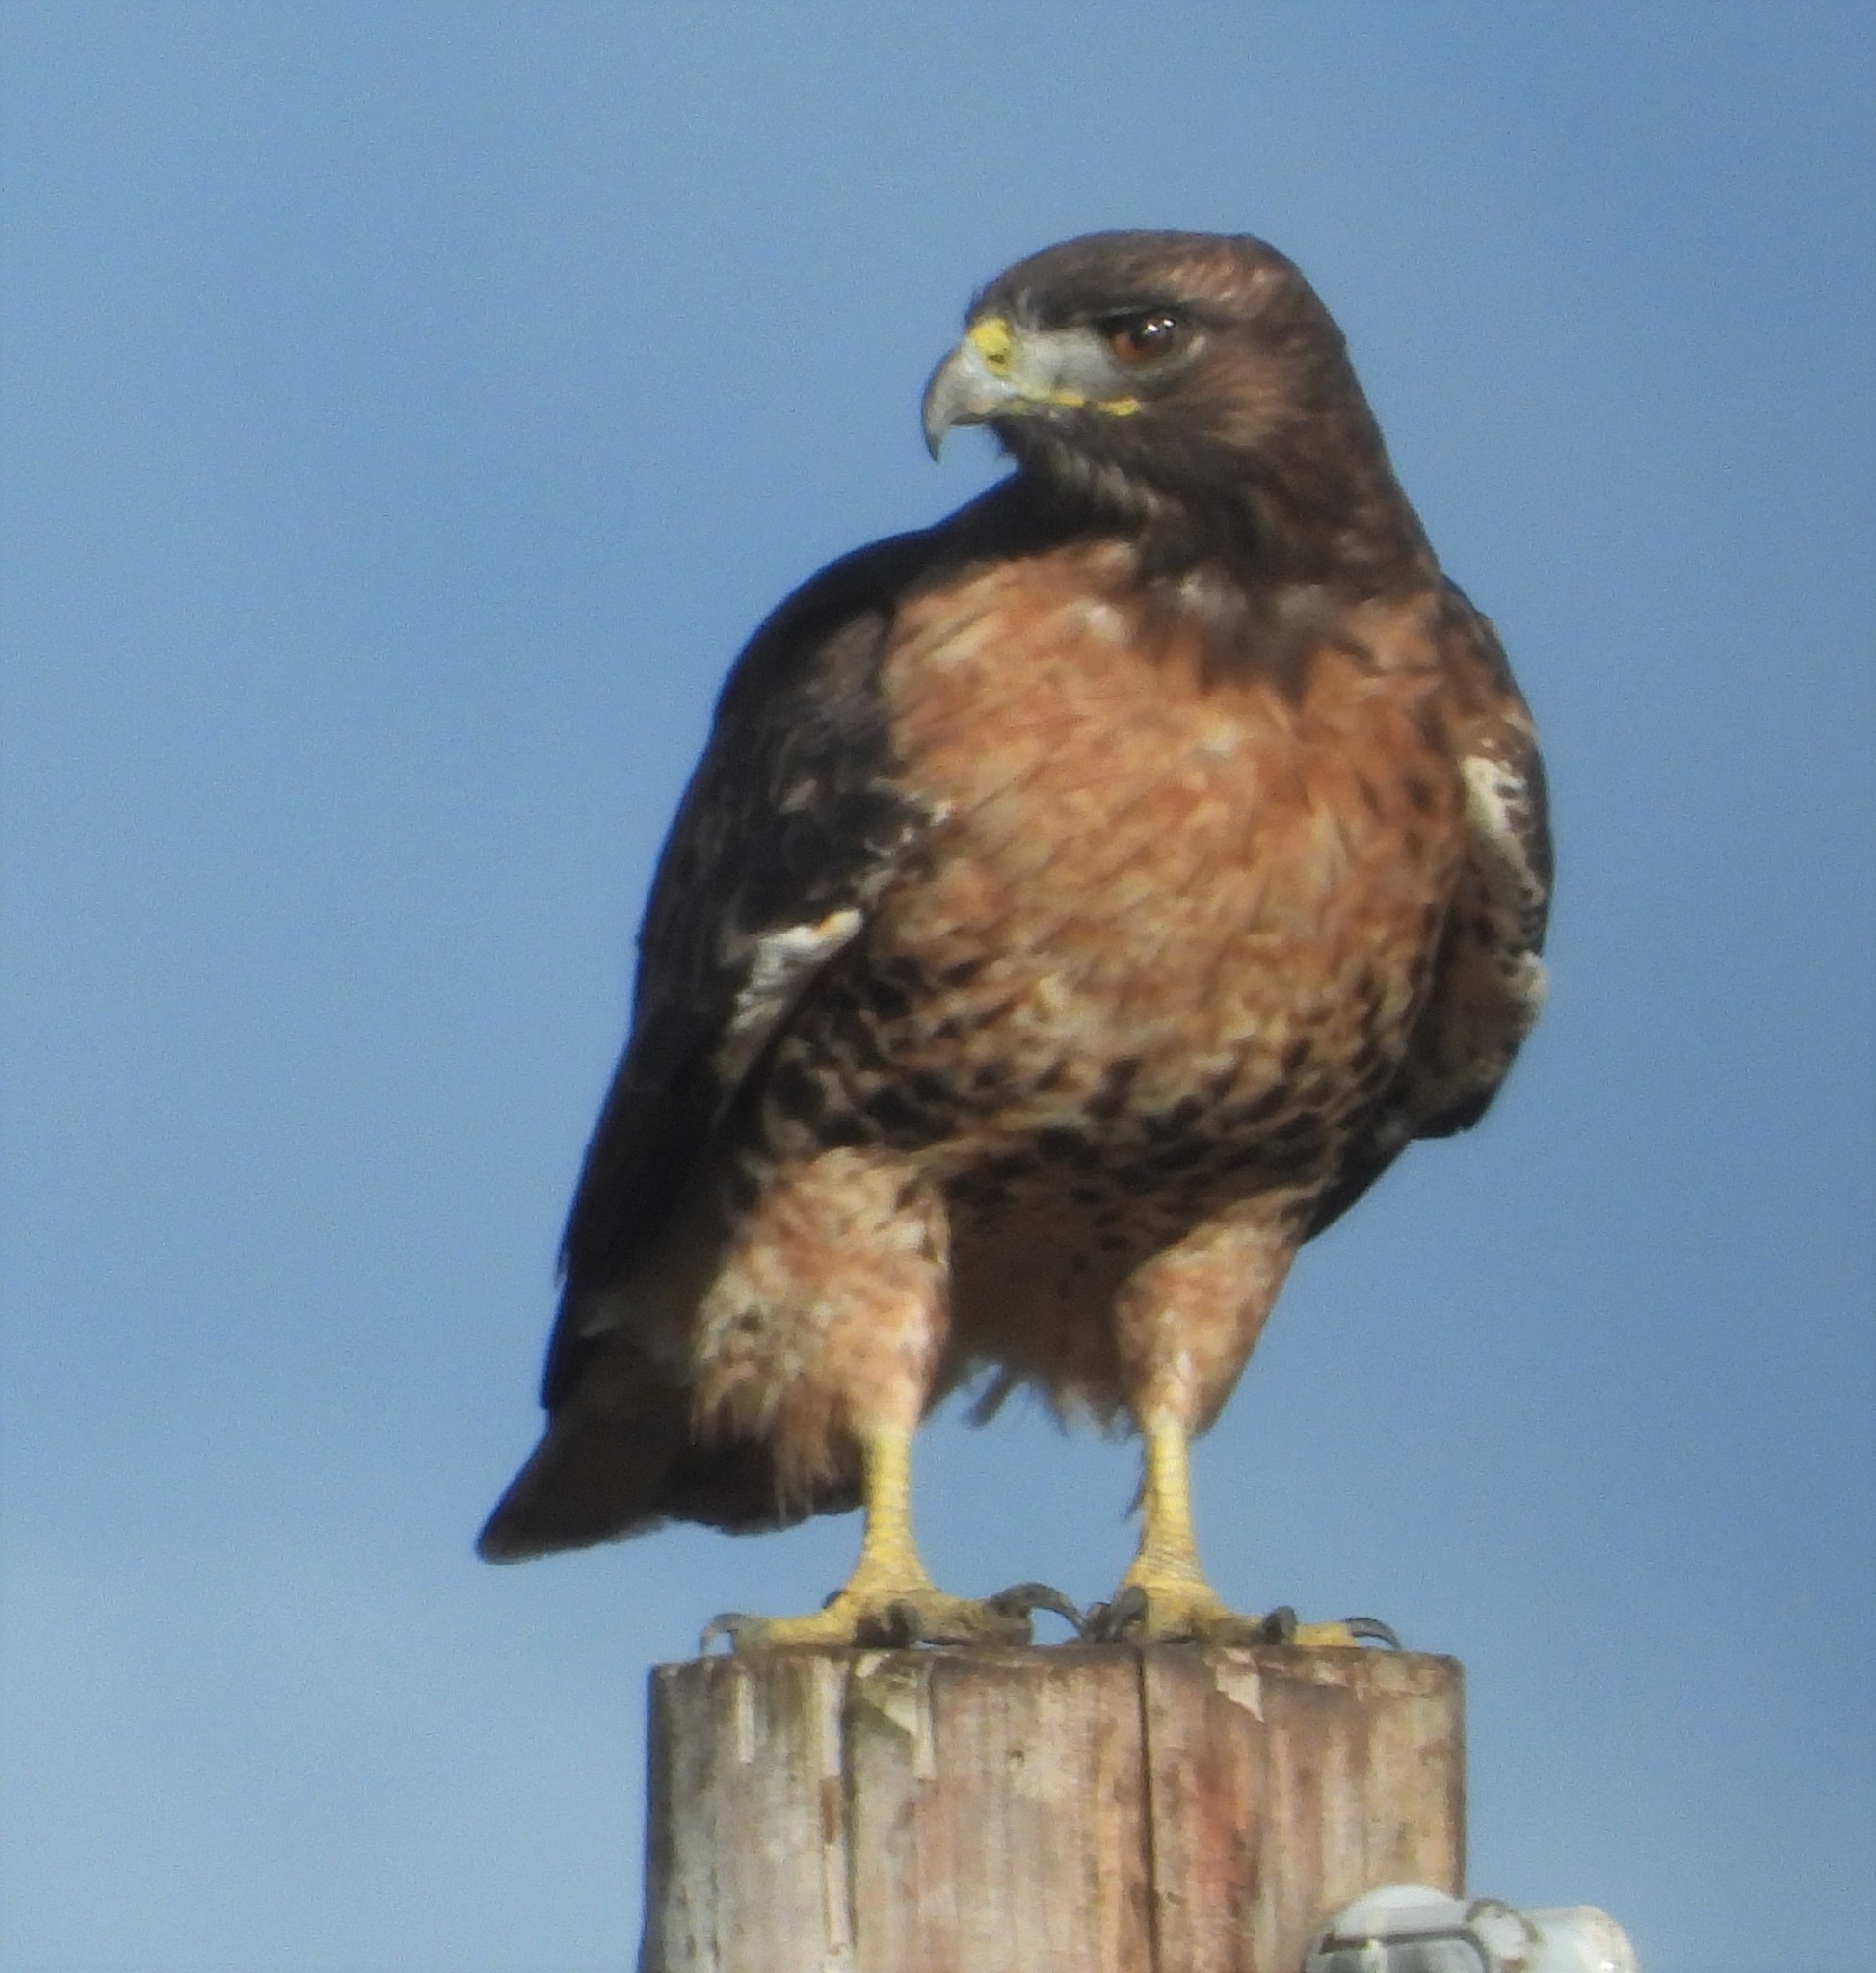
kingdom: Animalia
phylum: Chordata
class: Aves
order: Accipitriformes
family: Accipitridae
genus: Buteo
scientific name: Buteo jamaicensis
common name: Red-tailed hawk
